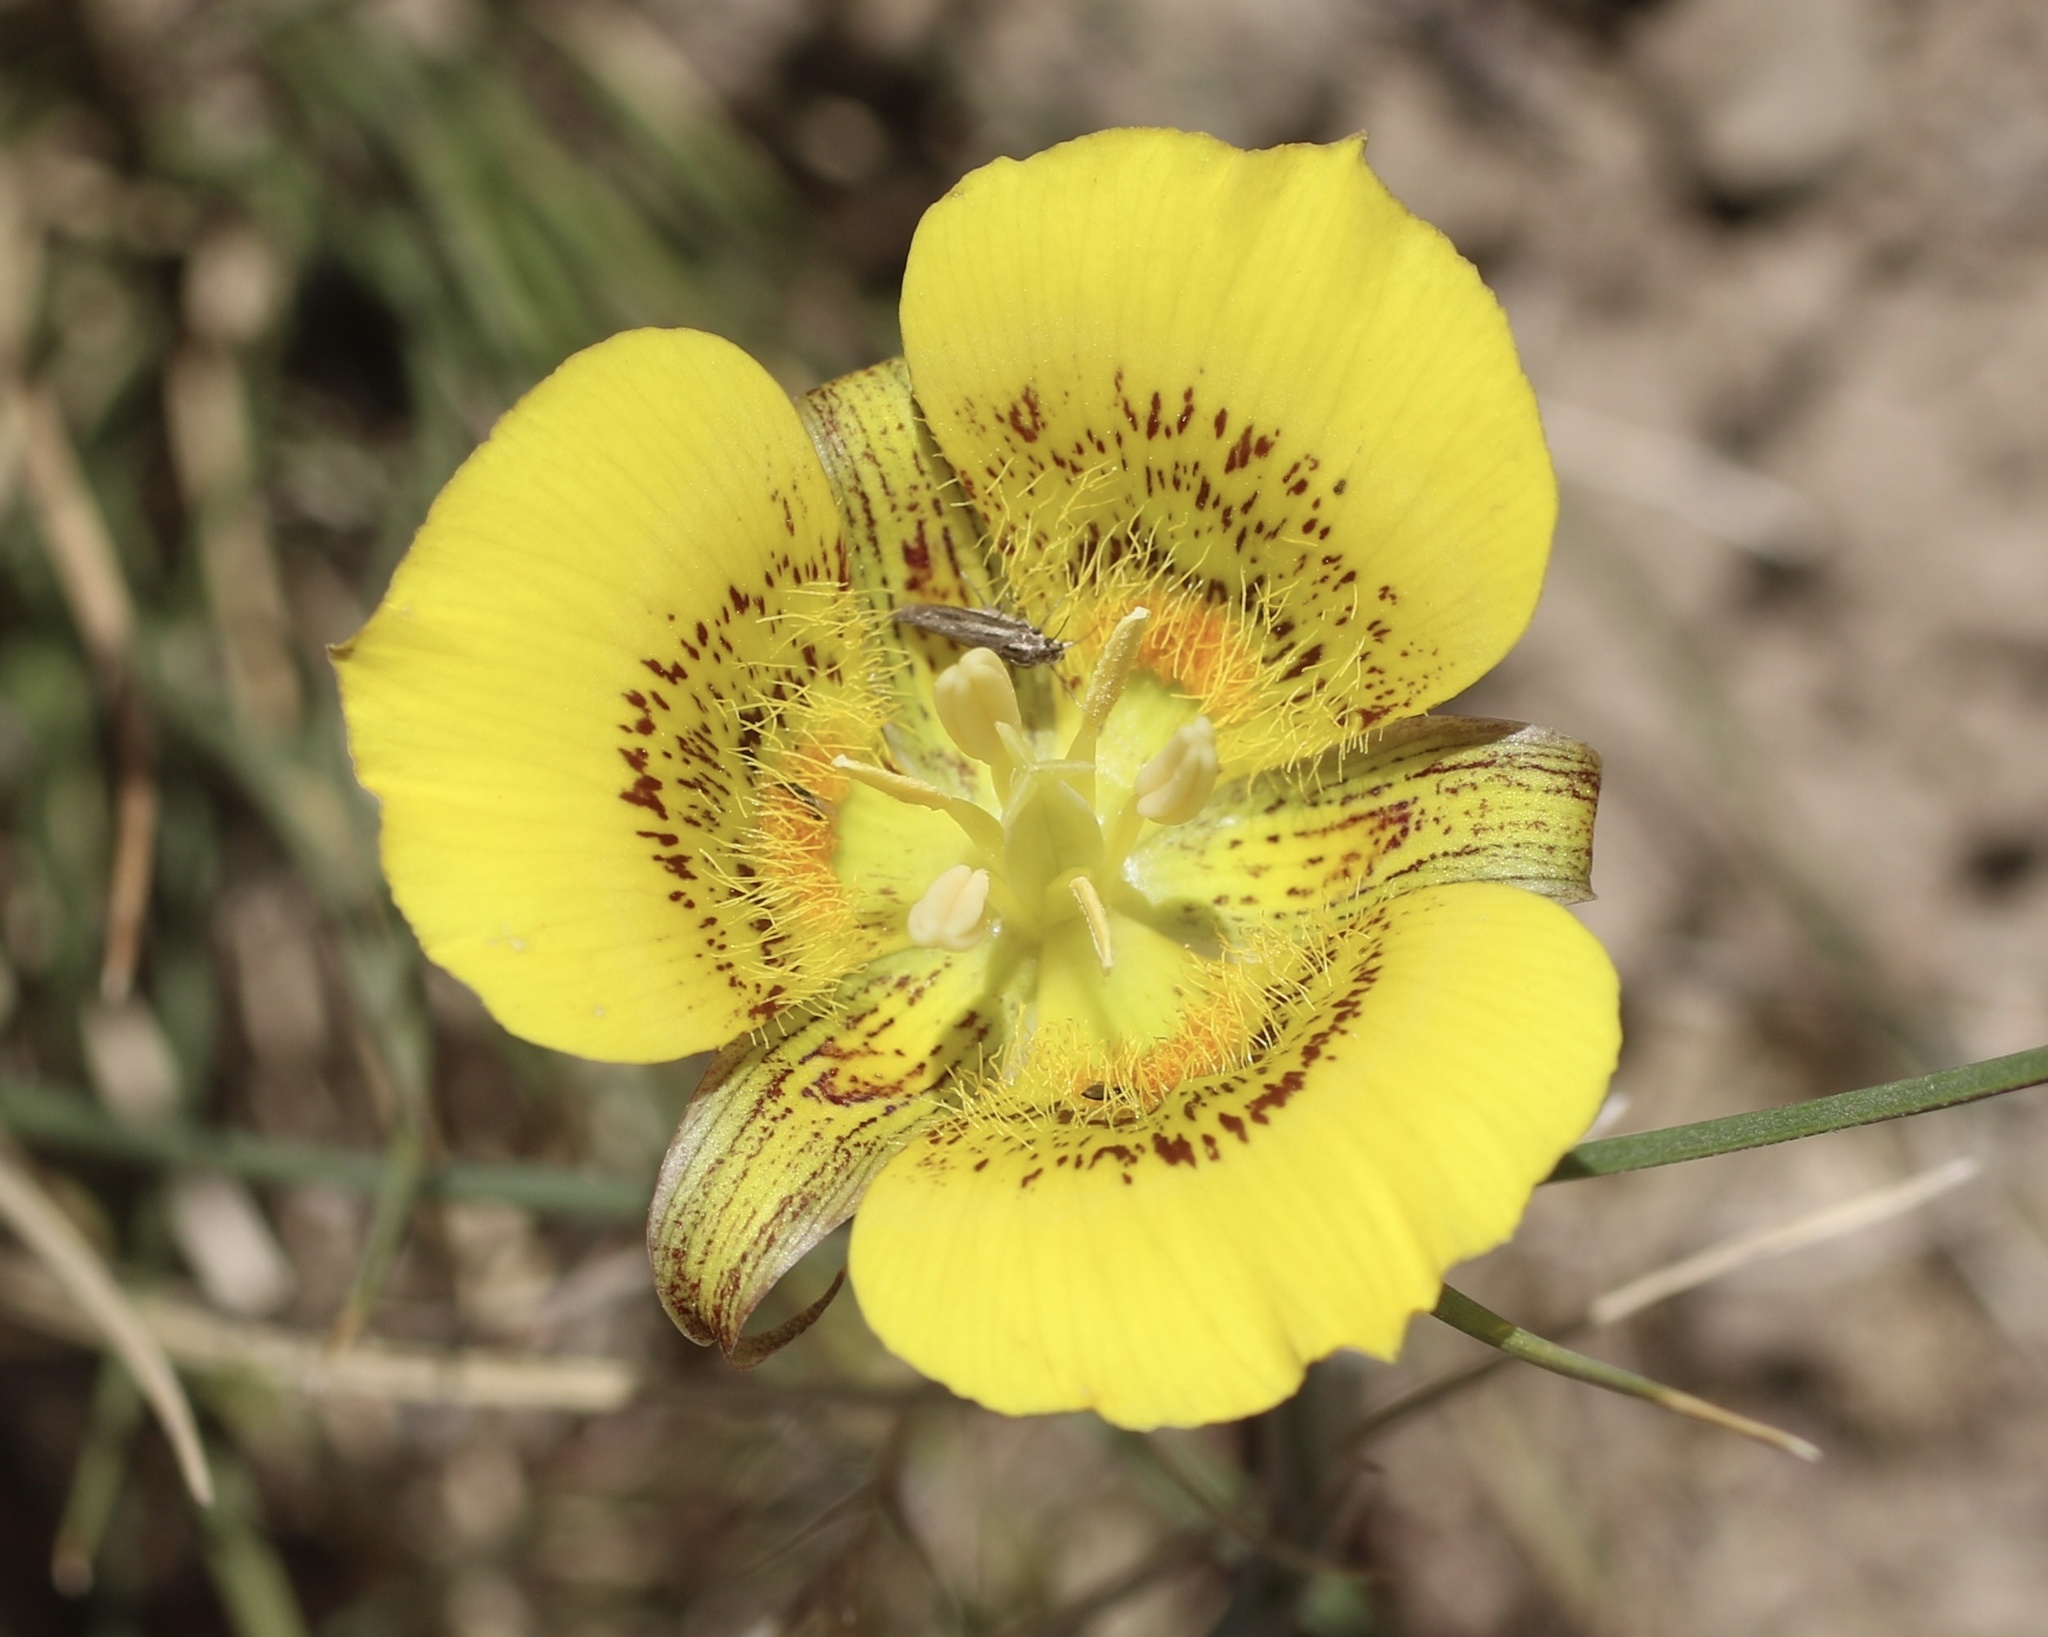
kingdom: Plantae
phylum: Tracheophyta
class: Liliopsida
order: Liliales
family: Liliaceae
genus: Calochortus
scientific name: Calochortus luteus
